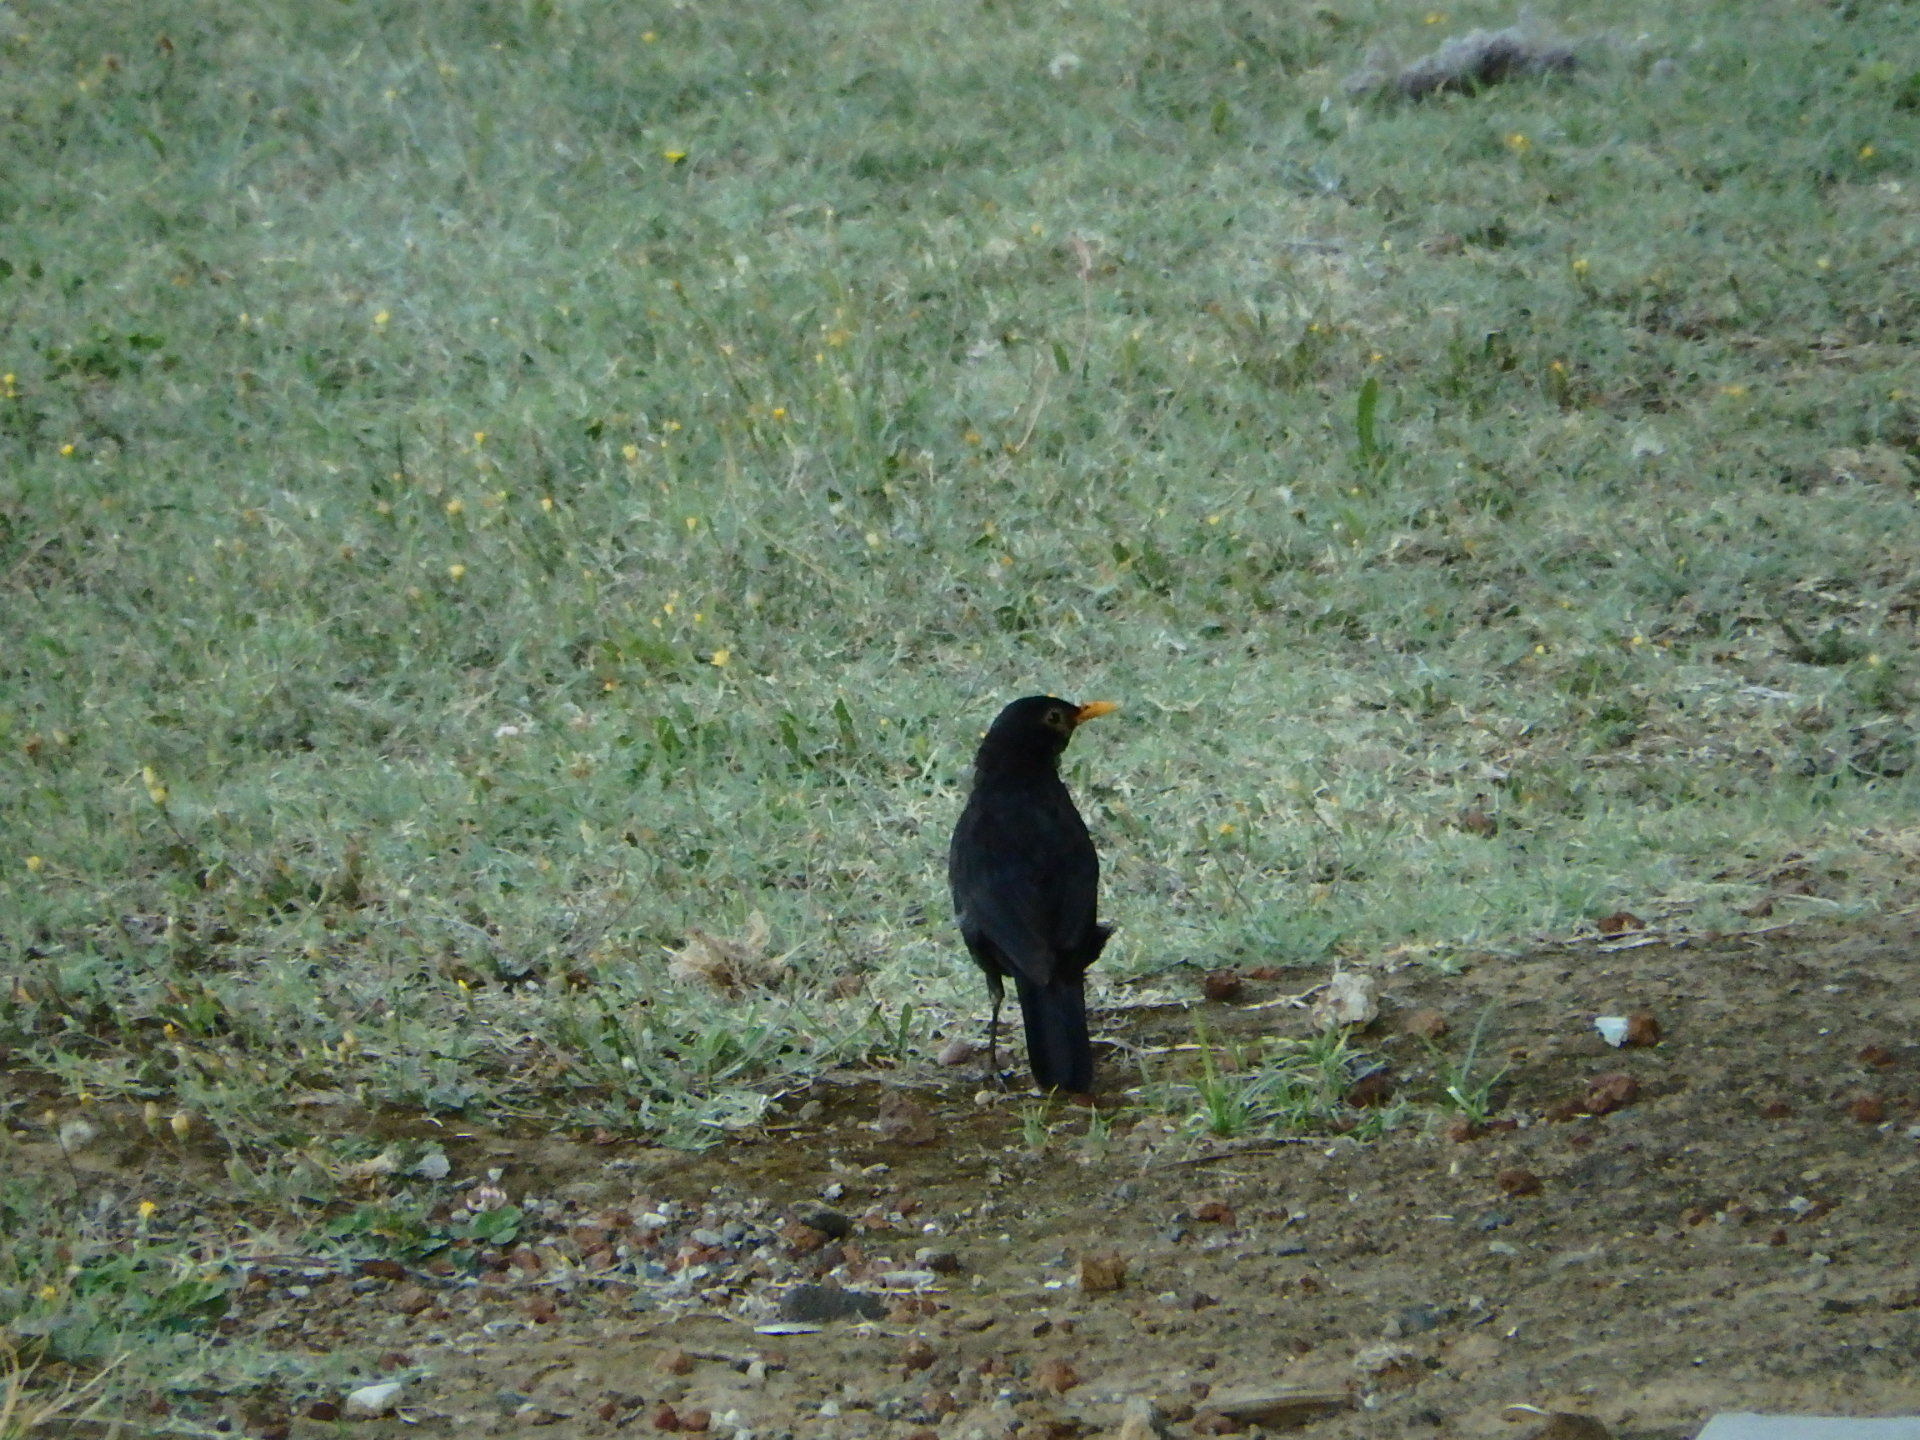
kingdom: Animalia
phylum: Chordata
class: Aves
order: Passeriformes
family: Turdidae
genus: Turdus
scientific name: Turdus merula
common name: Common blackbird
